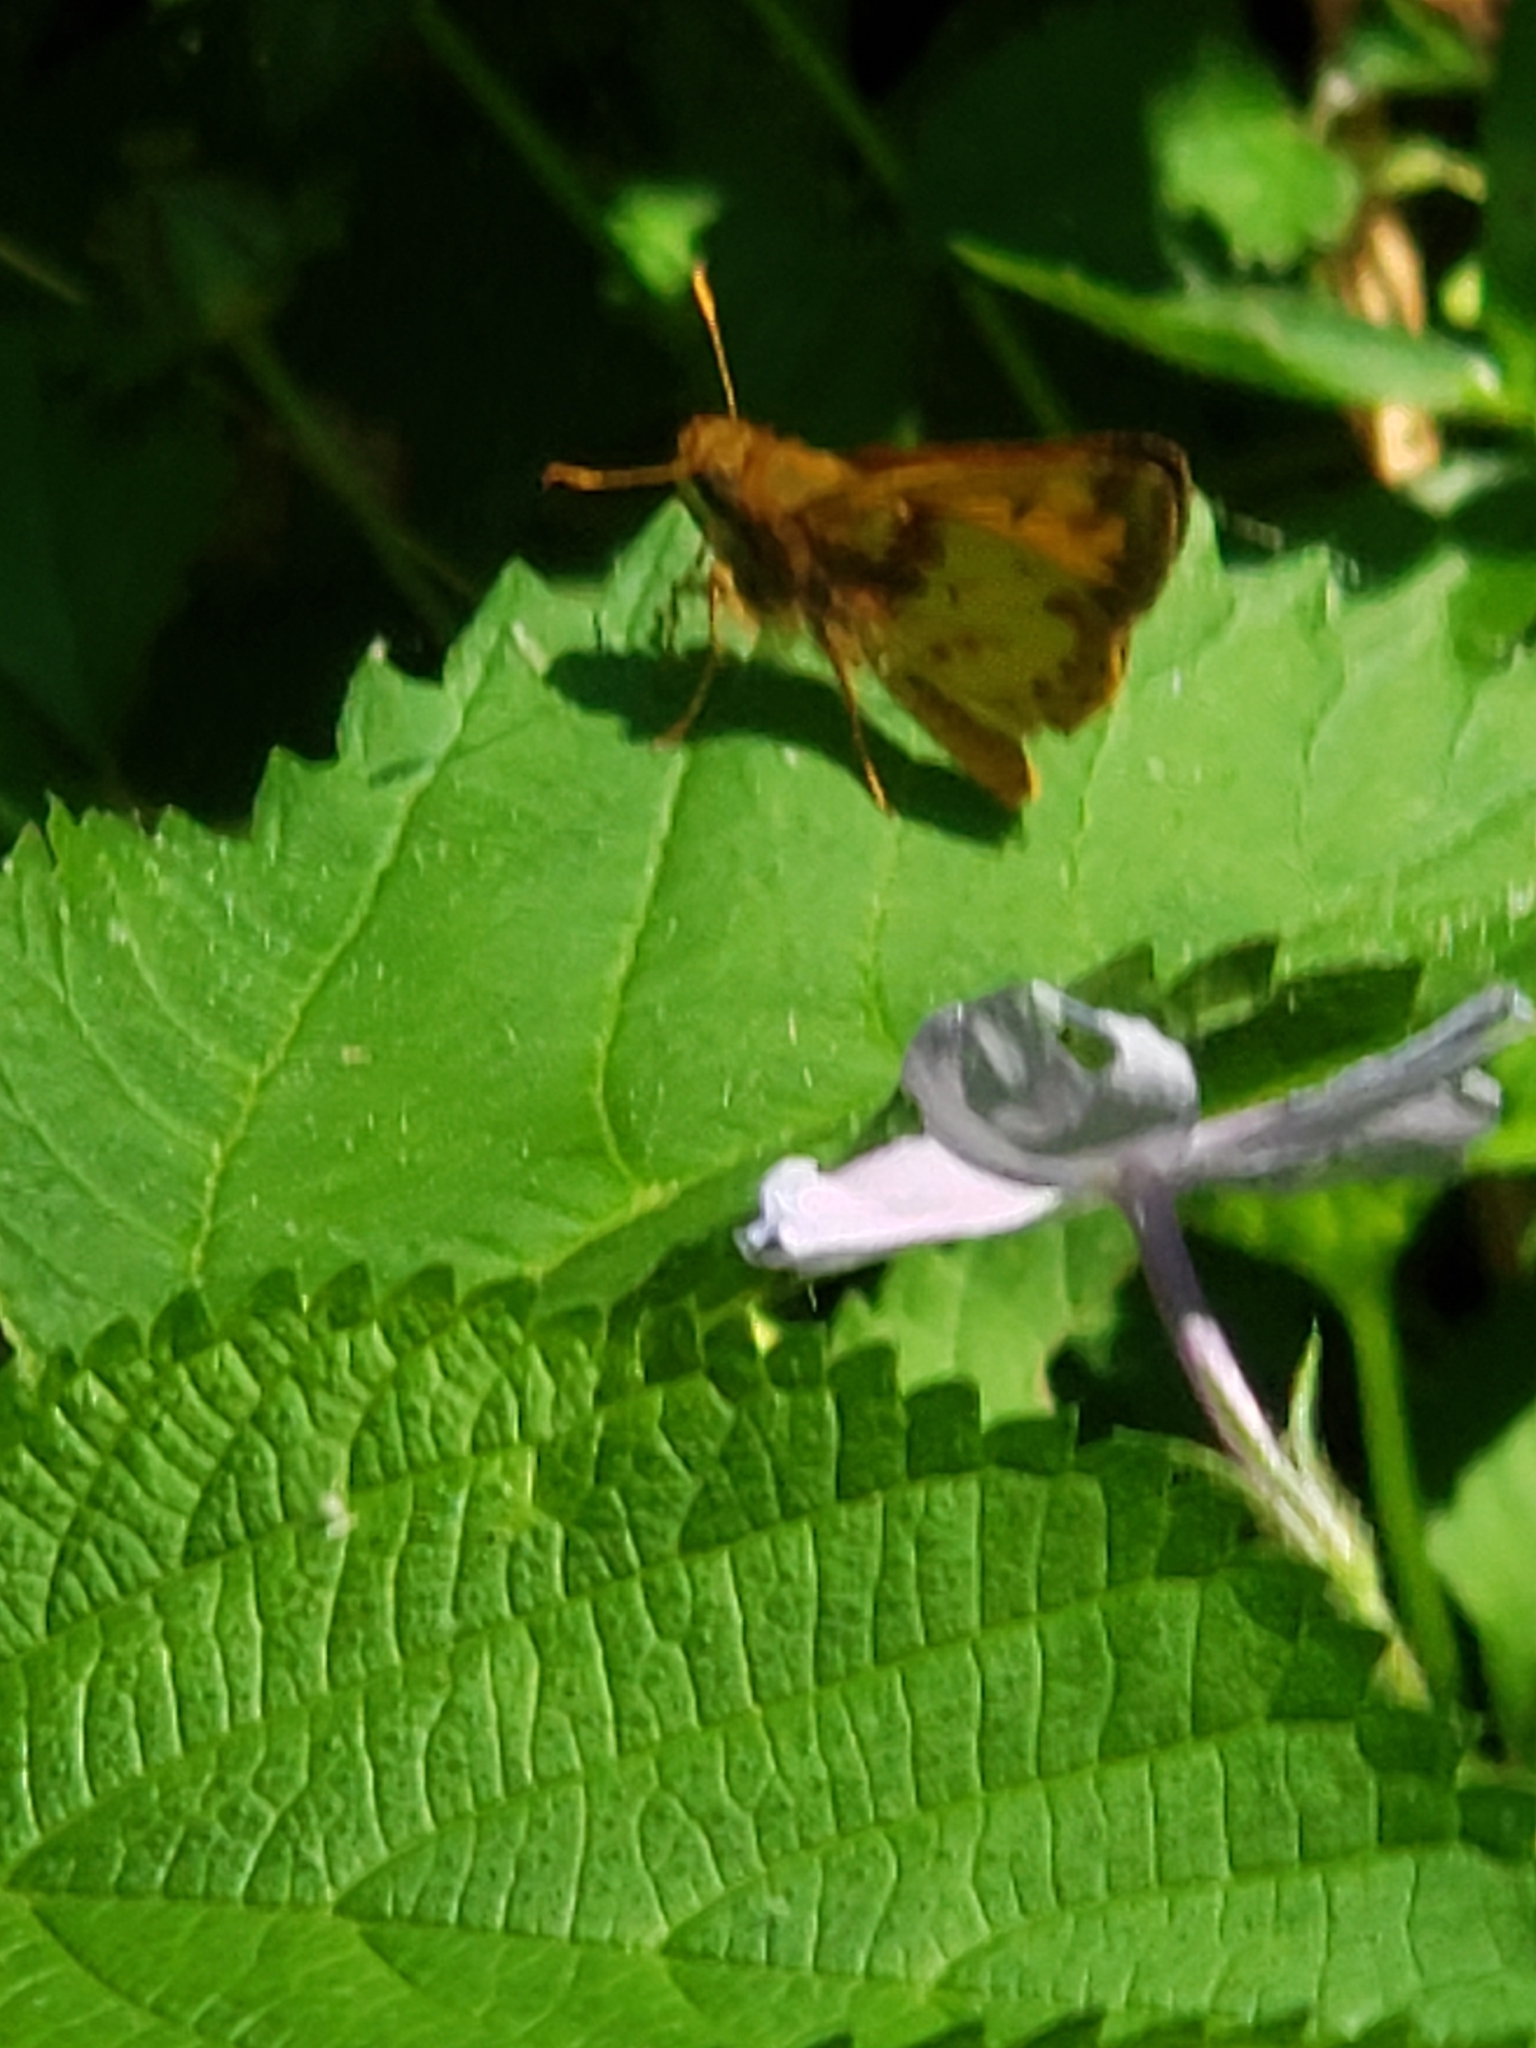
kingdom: Animalia
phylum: Arthropoda
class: Insecta
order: Lepidoptera
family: Hesperiidae
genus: Lon
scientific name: Lon zabulon
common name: Zabulon skipper
